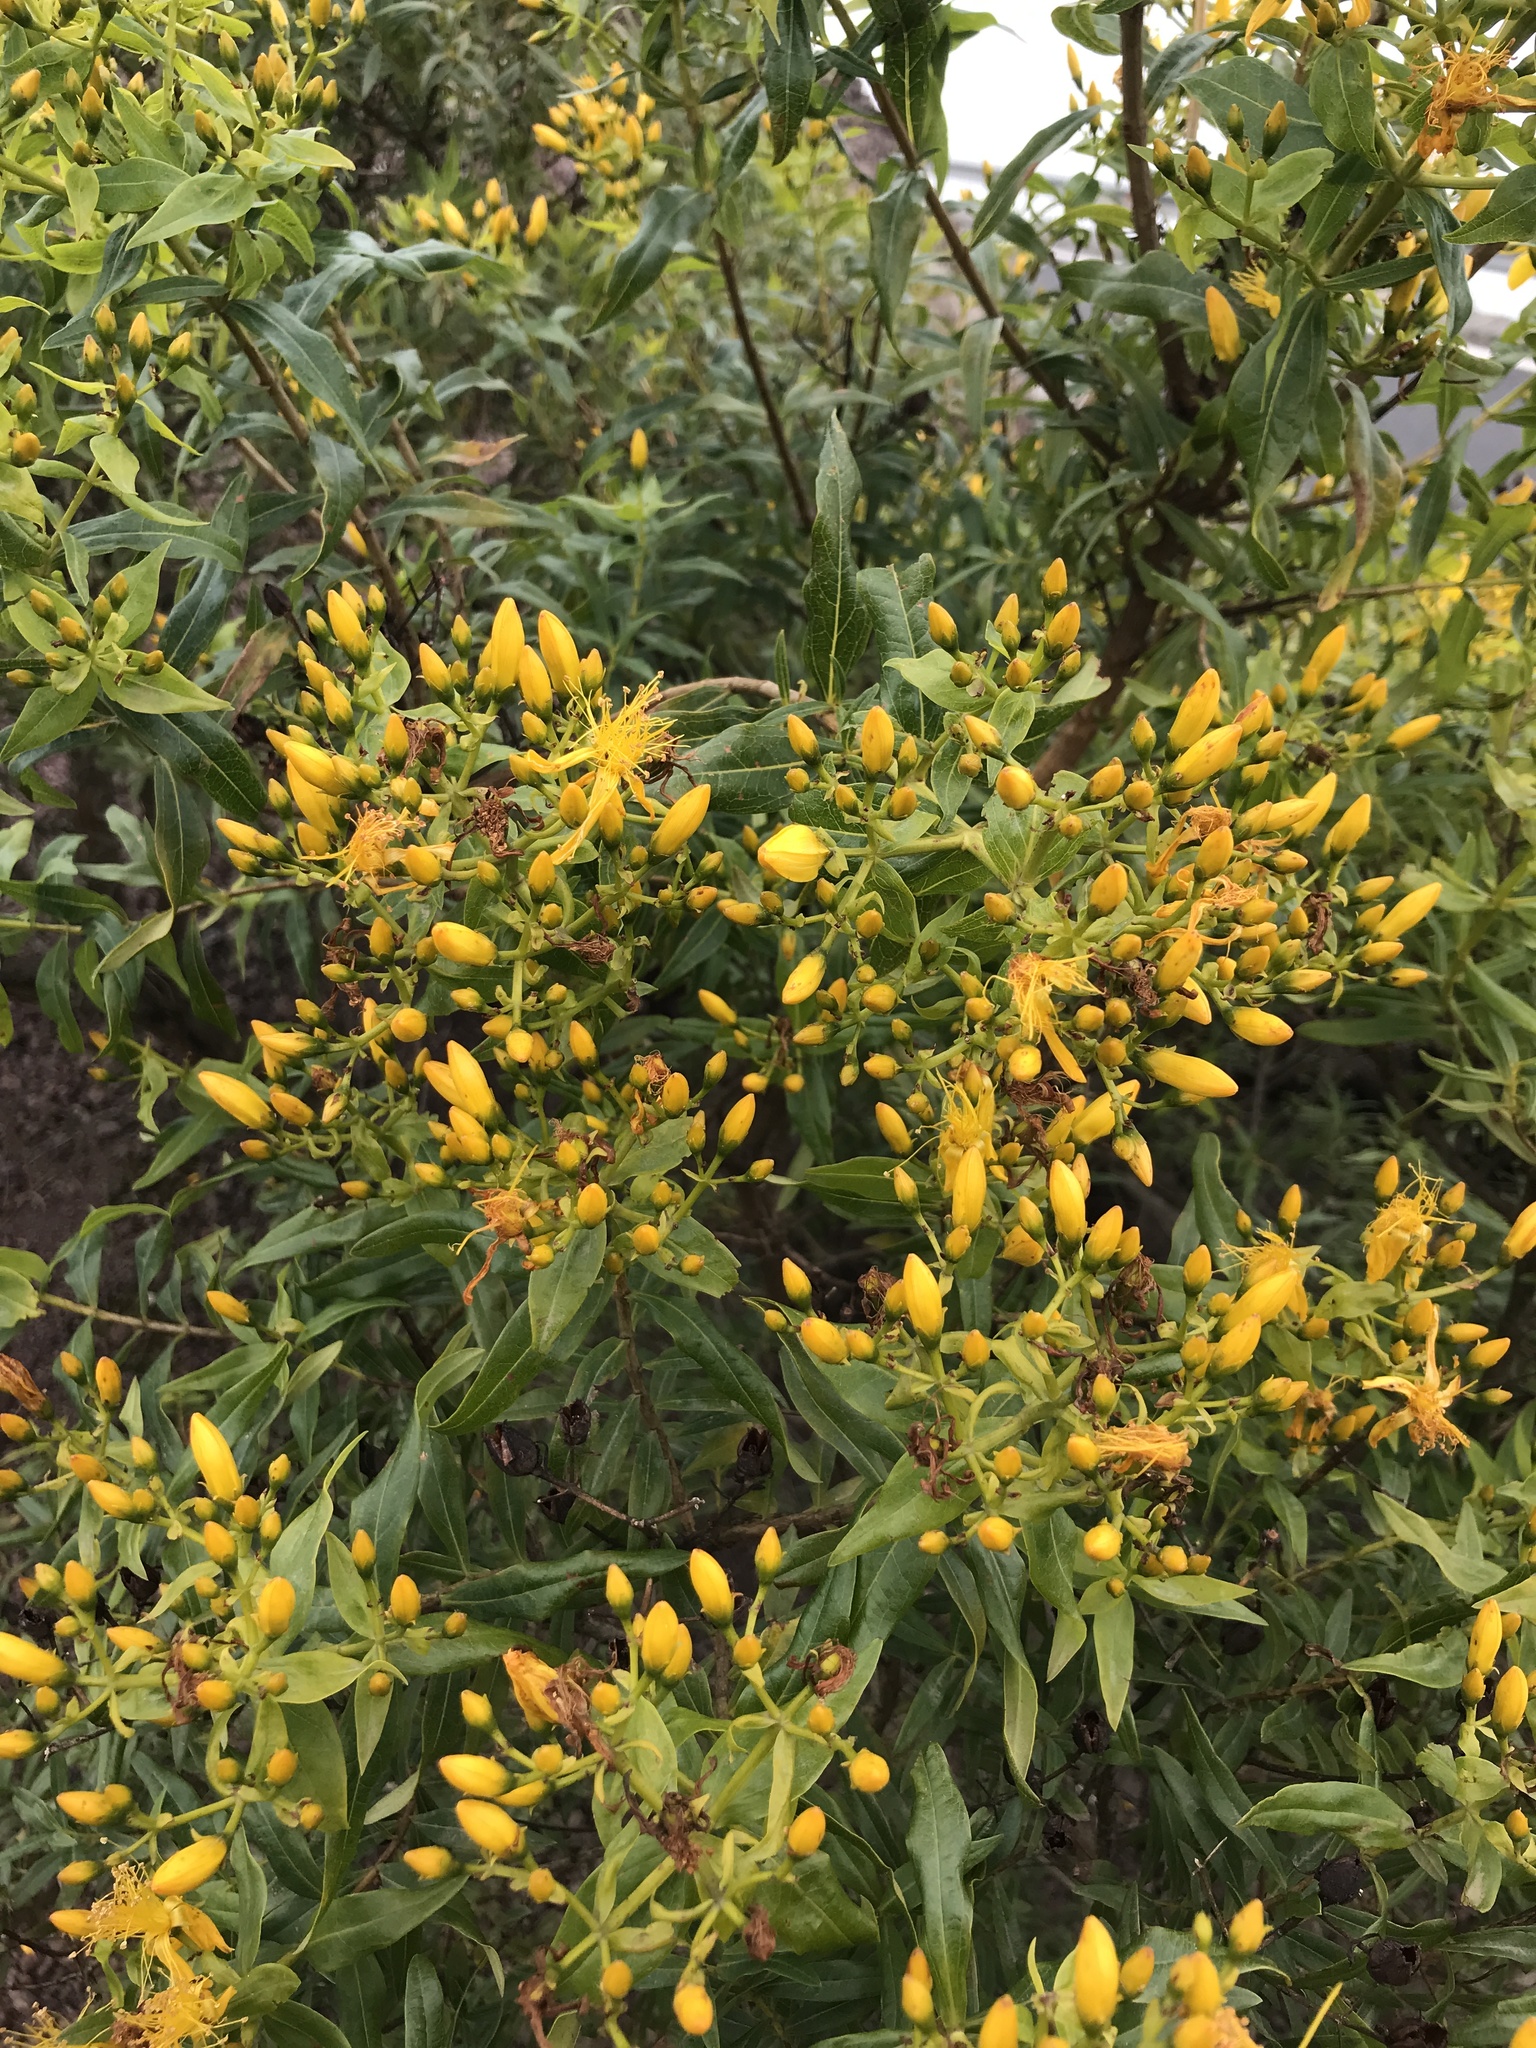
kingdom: Plantae
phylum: Tracheophyta
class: Magnoliopsida
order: Malpighiales
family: Hypericaceae
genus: Hypericum
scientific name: Hypericum canariense
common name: Canary island st. johnswort
